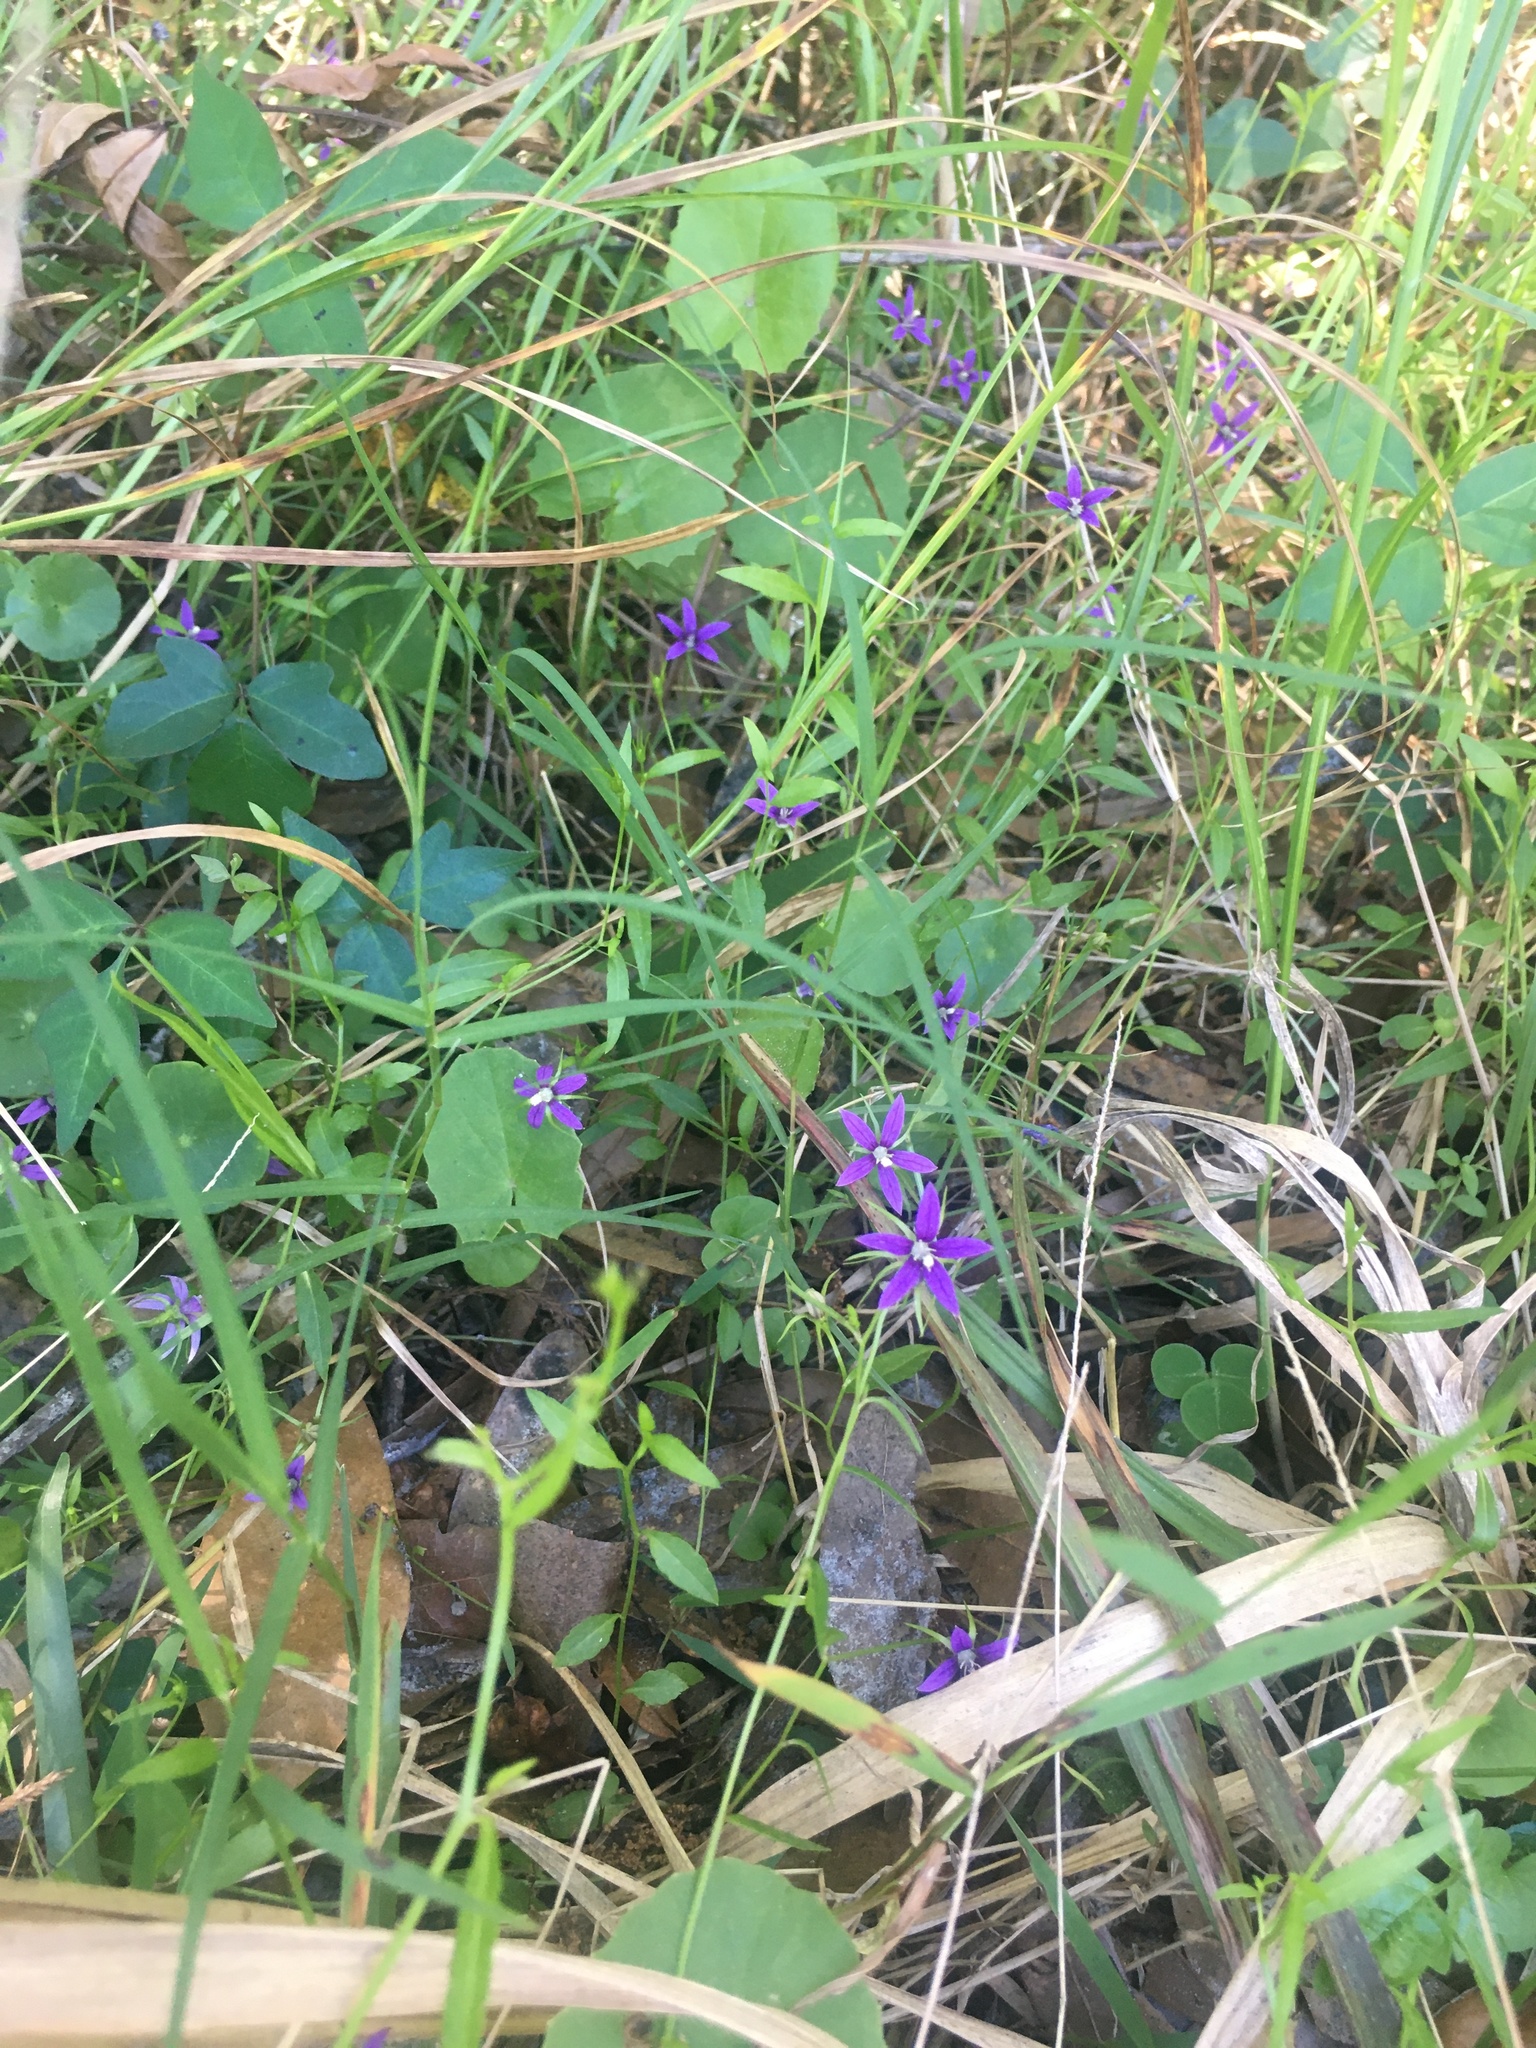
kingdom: Plantae
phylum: Tracheophyta
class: Magnoliopsida
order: Asterales
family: Campanulaceae
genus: Rotanthella
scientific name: Rotanthella floridana
